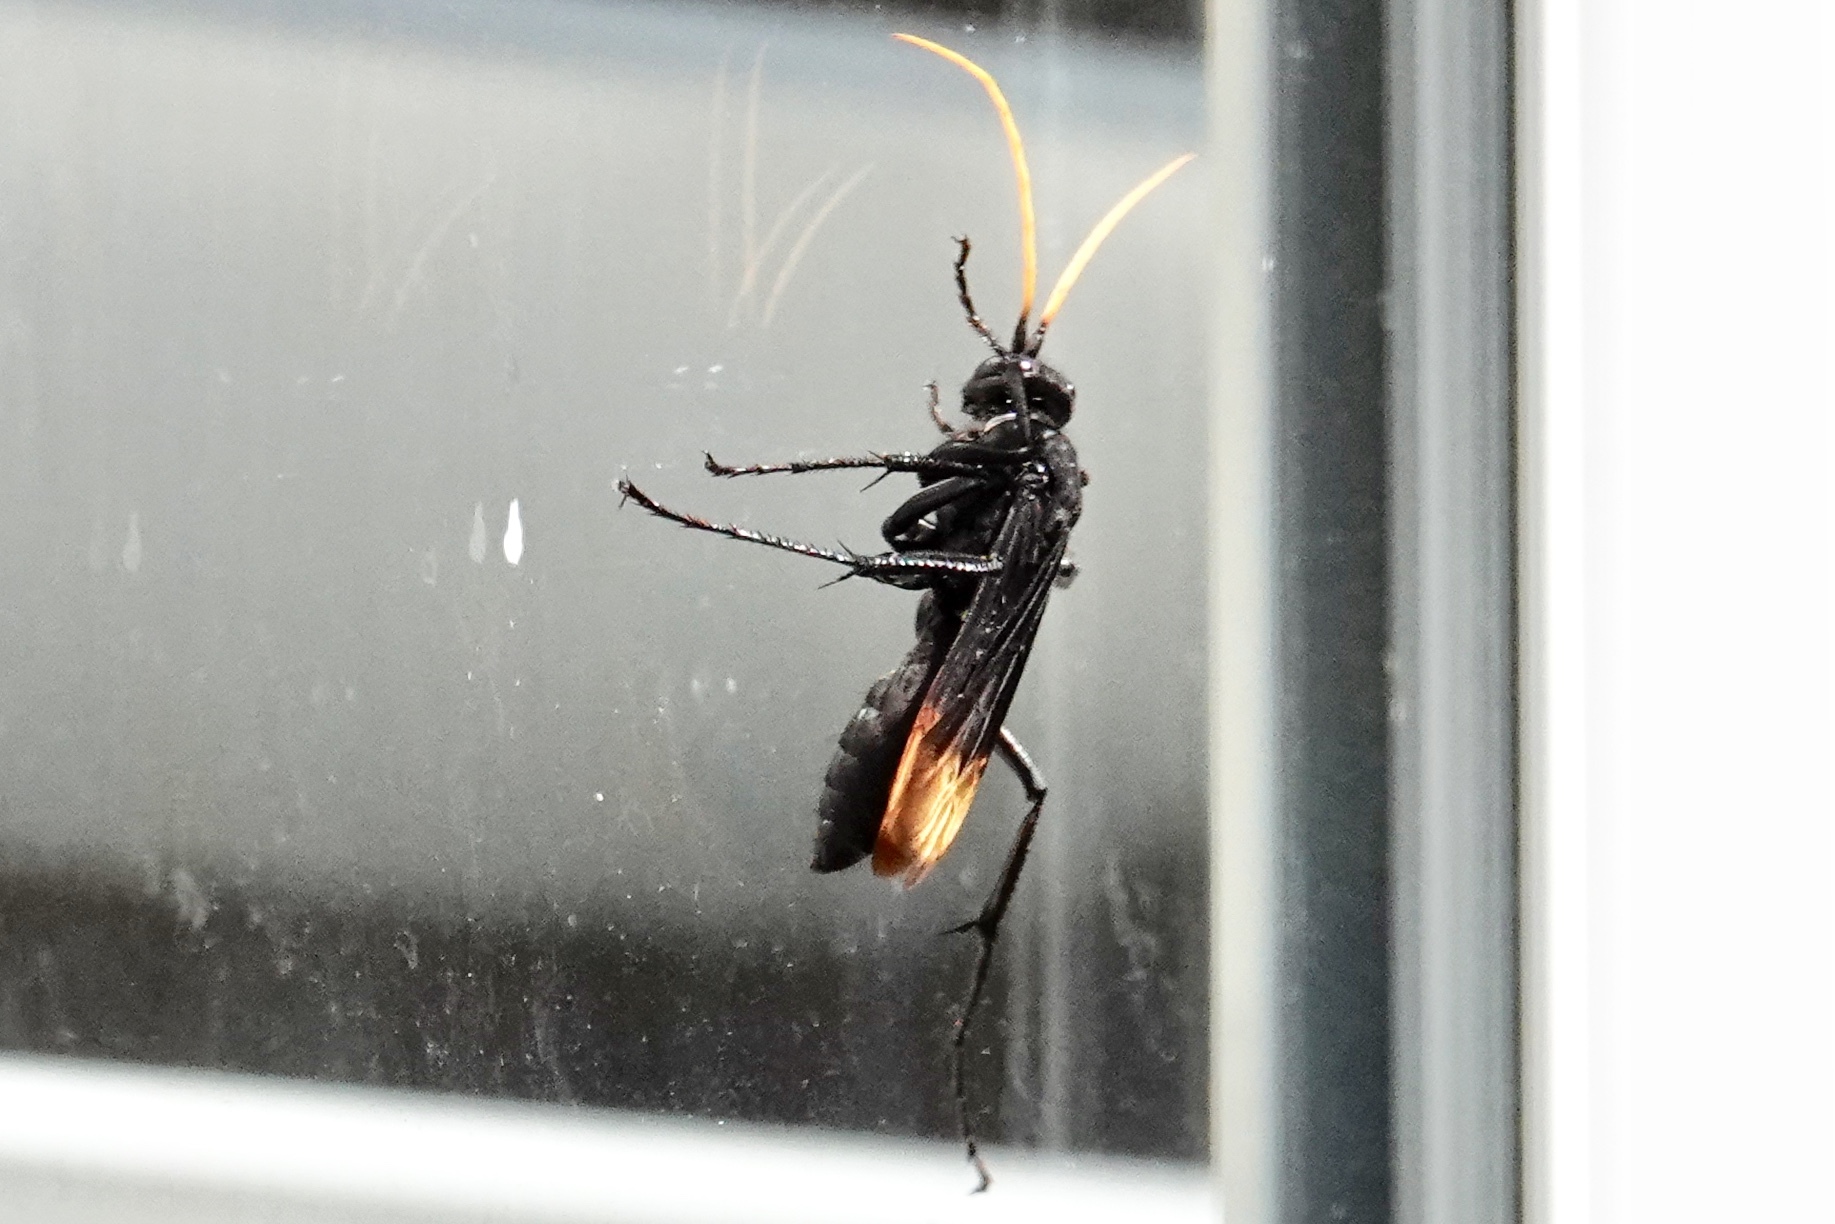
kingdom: Animalia
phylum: Arthropoda
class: Insecta
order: Hymenoptera
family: Pompilidae
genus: Entypus
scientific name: Entypus unifasciatus
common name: Eastern tawny-horned spider wasp
